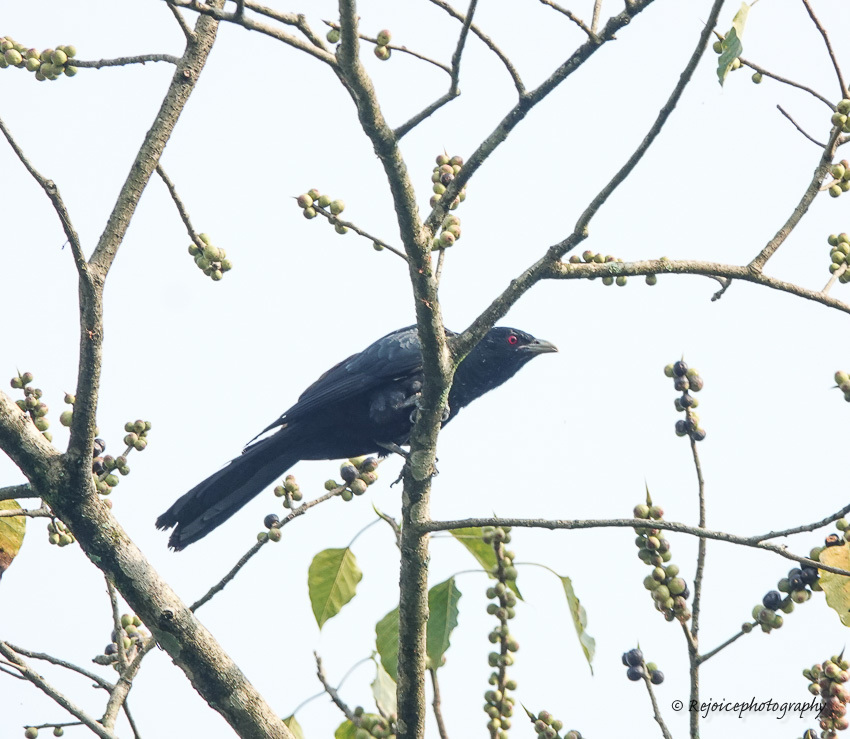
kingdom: Animalia
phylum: Chordata
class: Aves
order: Cuculiformes
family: Cuculidae
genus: Eudynamys
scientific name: Eudynamys scolopaceus
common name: Asian koel
